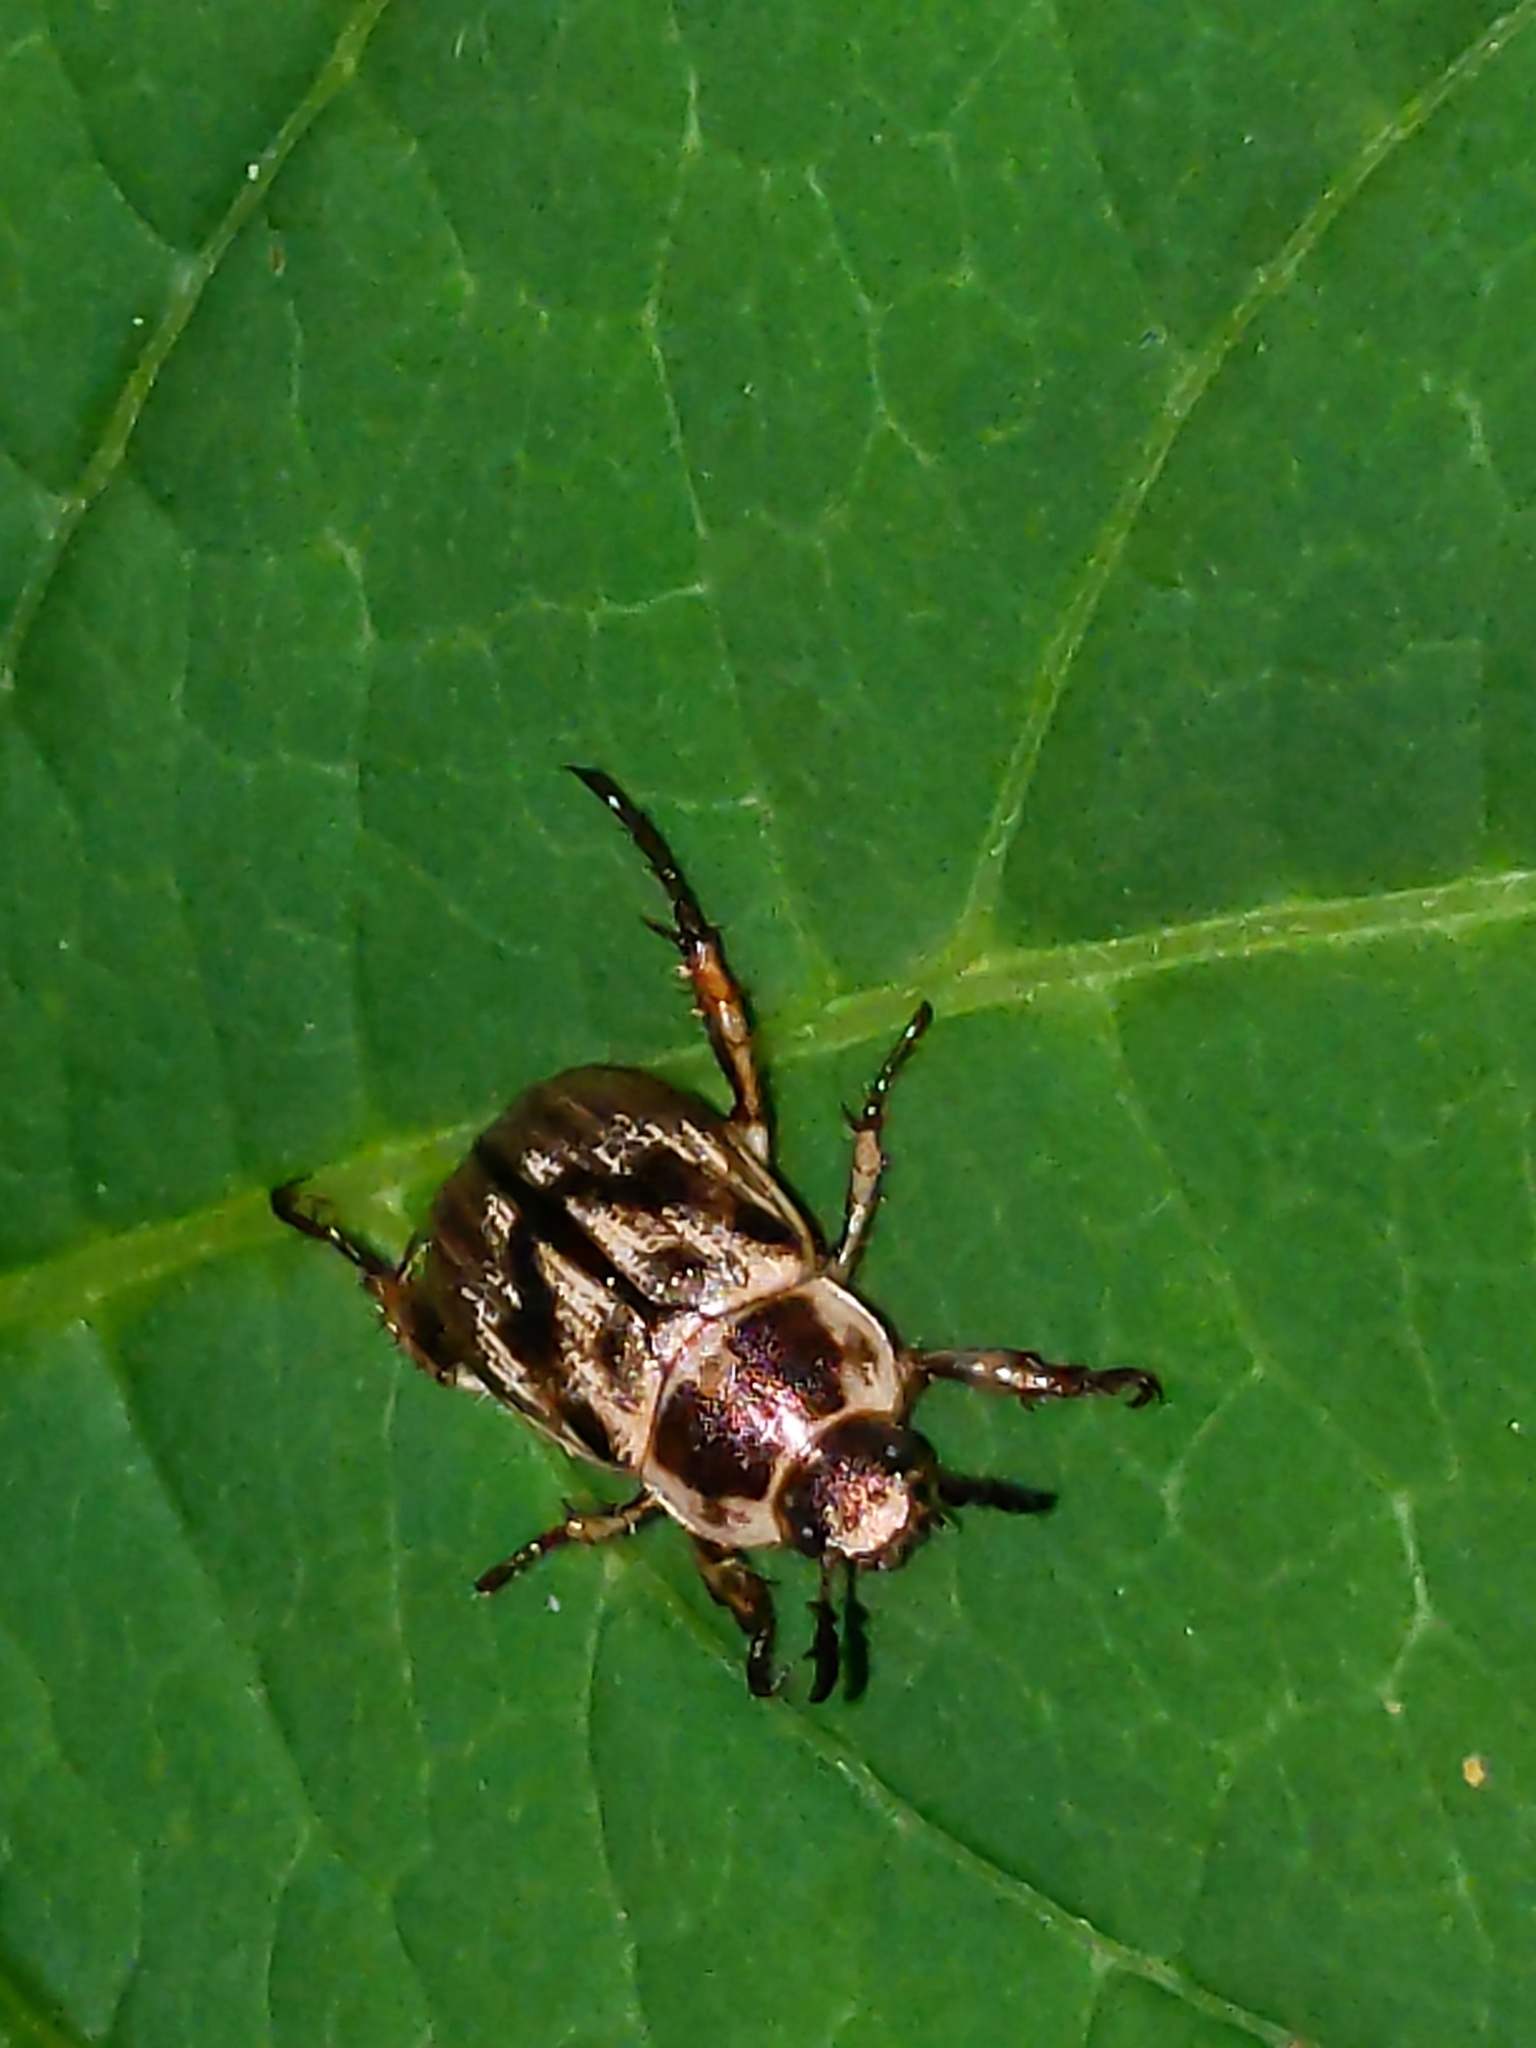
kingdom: Animalia
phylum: Arthropoda
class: Insecta
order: Coleoptera
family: Scarabaeidae
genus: Exomala
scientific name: Exomala orientalis
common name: Oriental beetle
